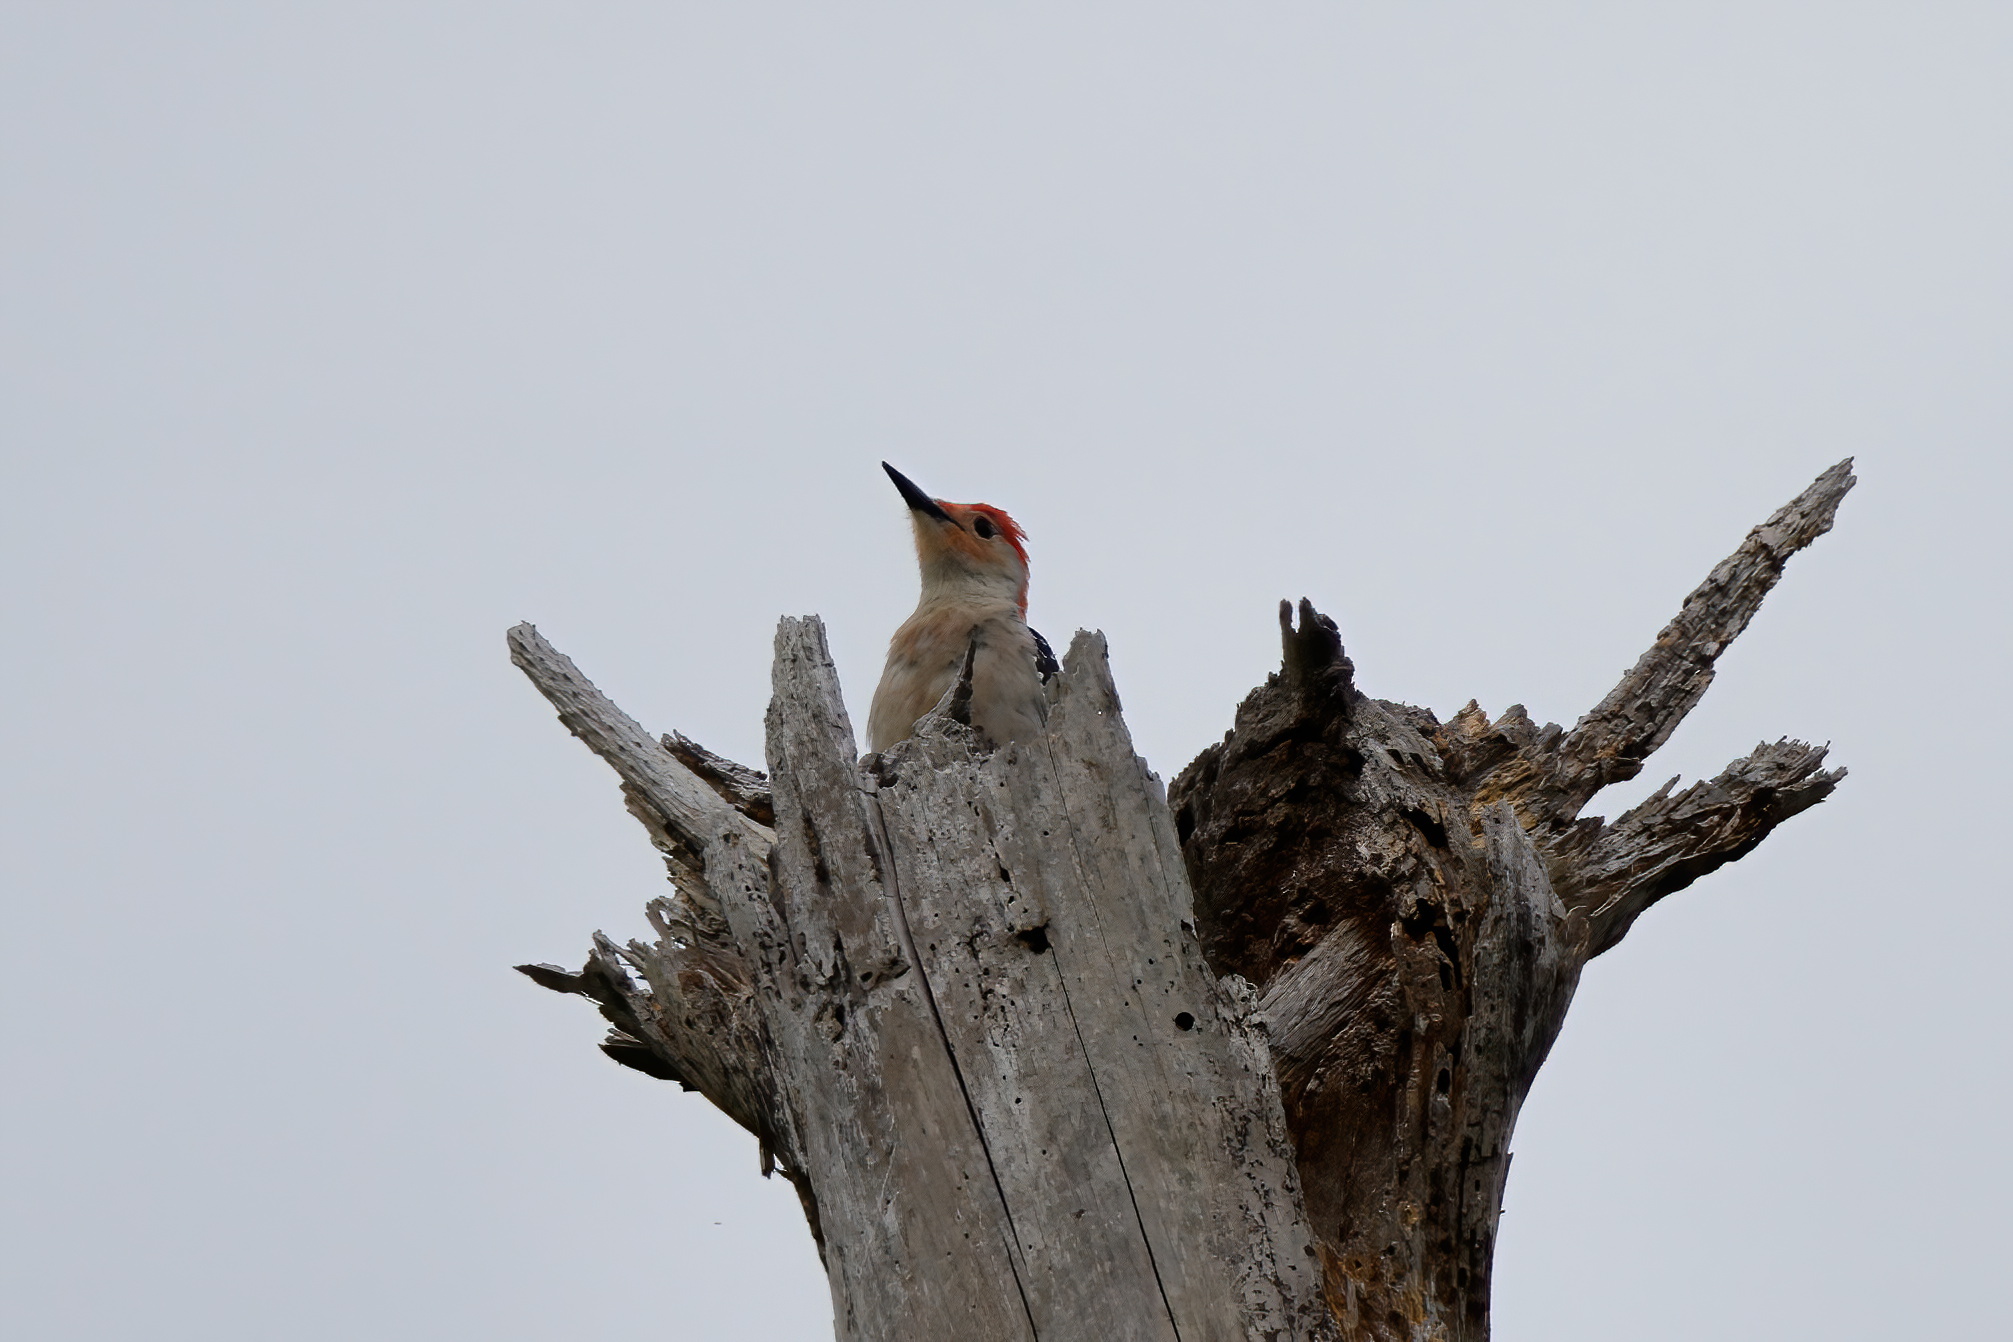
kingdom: Animalia
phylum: Chordata
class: Aves
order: Piciformes
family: Picidae
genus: Melanerpes
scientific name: Melanerpes carolinus
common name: Red-bellied woodpecker
